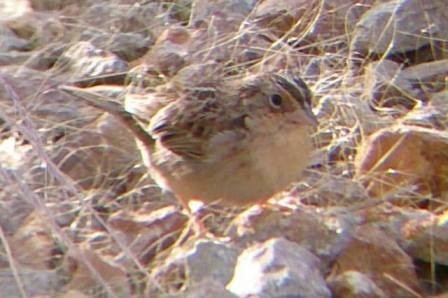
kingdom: Animalia
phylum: Chordata
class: Aves
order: Passeriformes
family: Passerellidae
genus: Ammodramus
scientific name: Ammodramus savannarum
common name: Grasshopper sparrow
